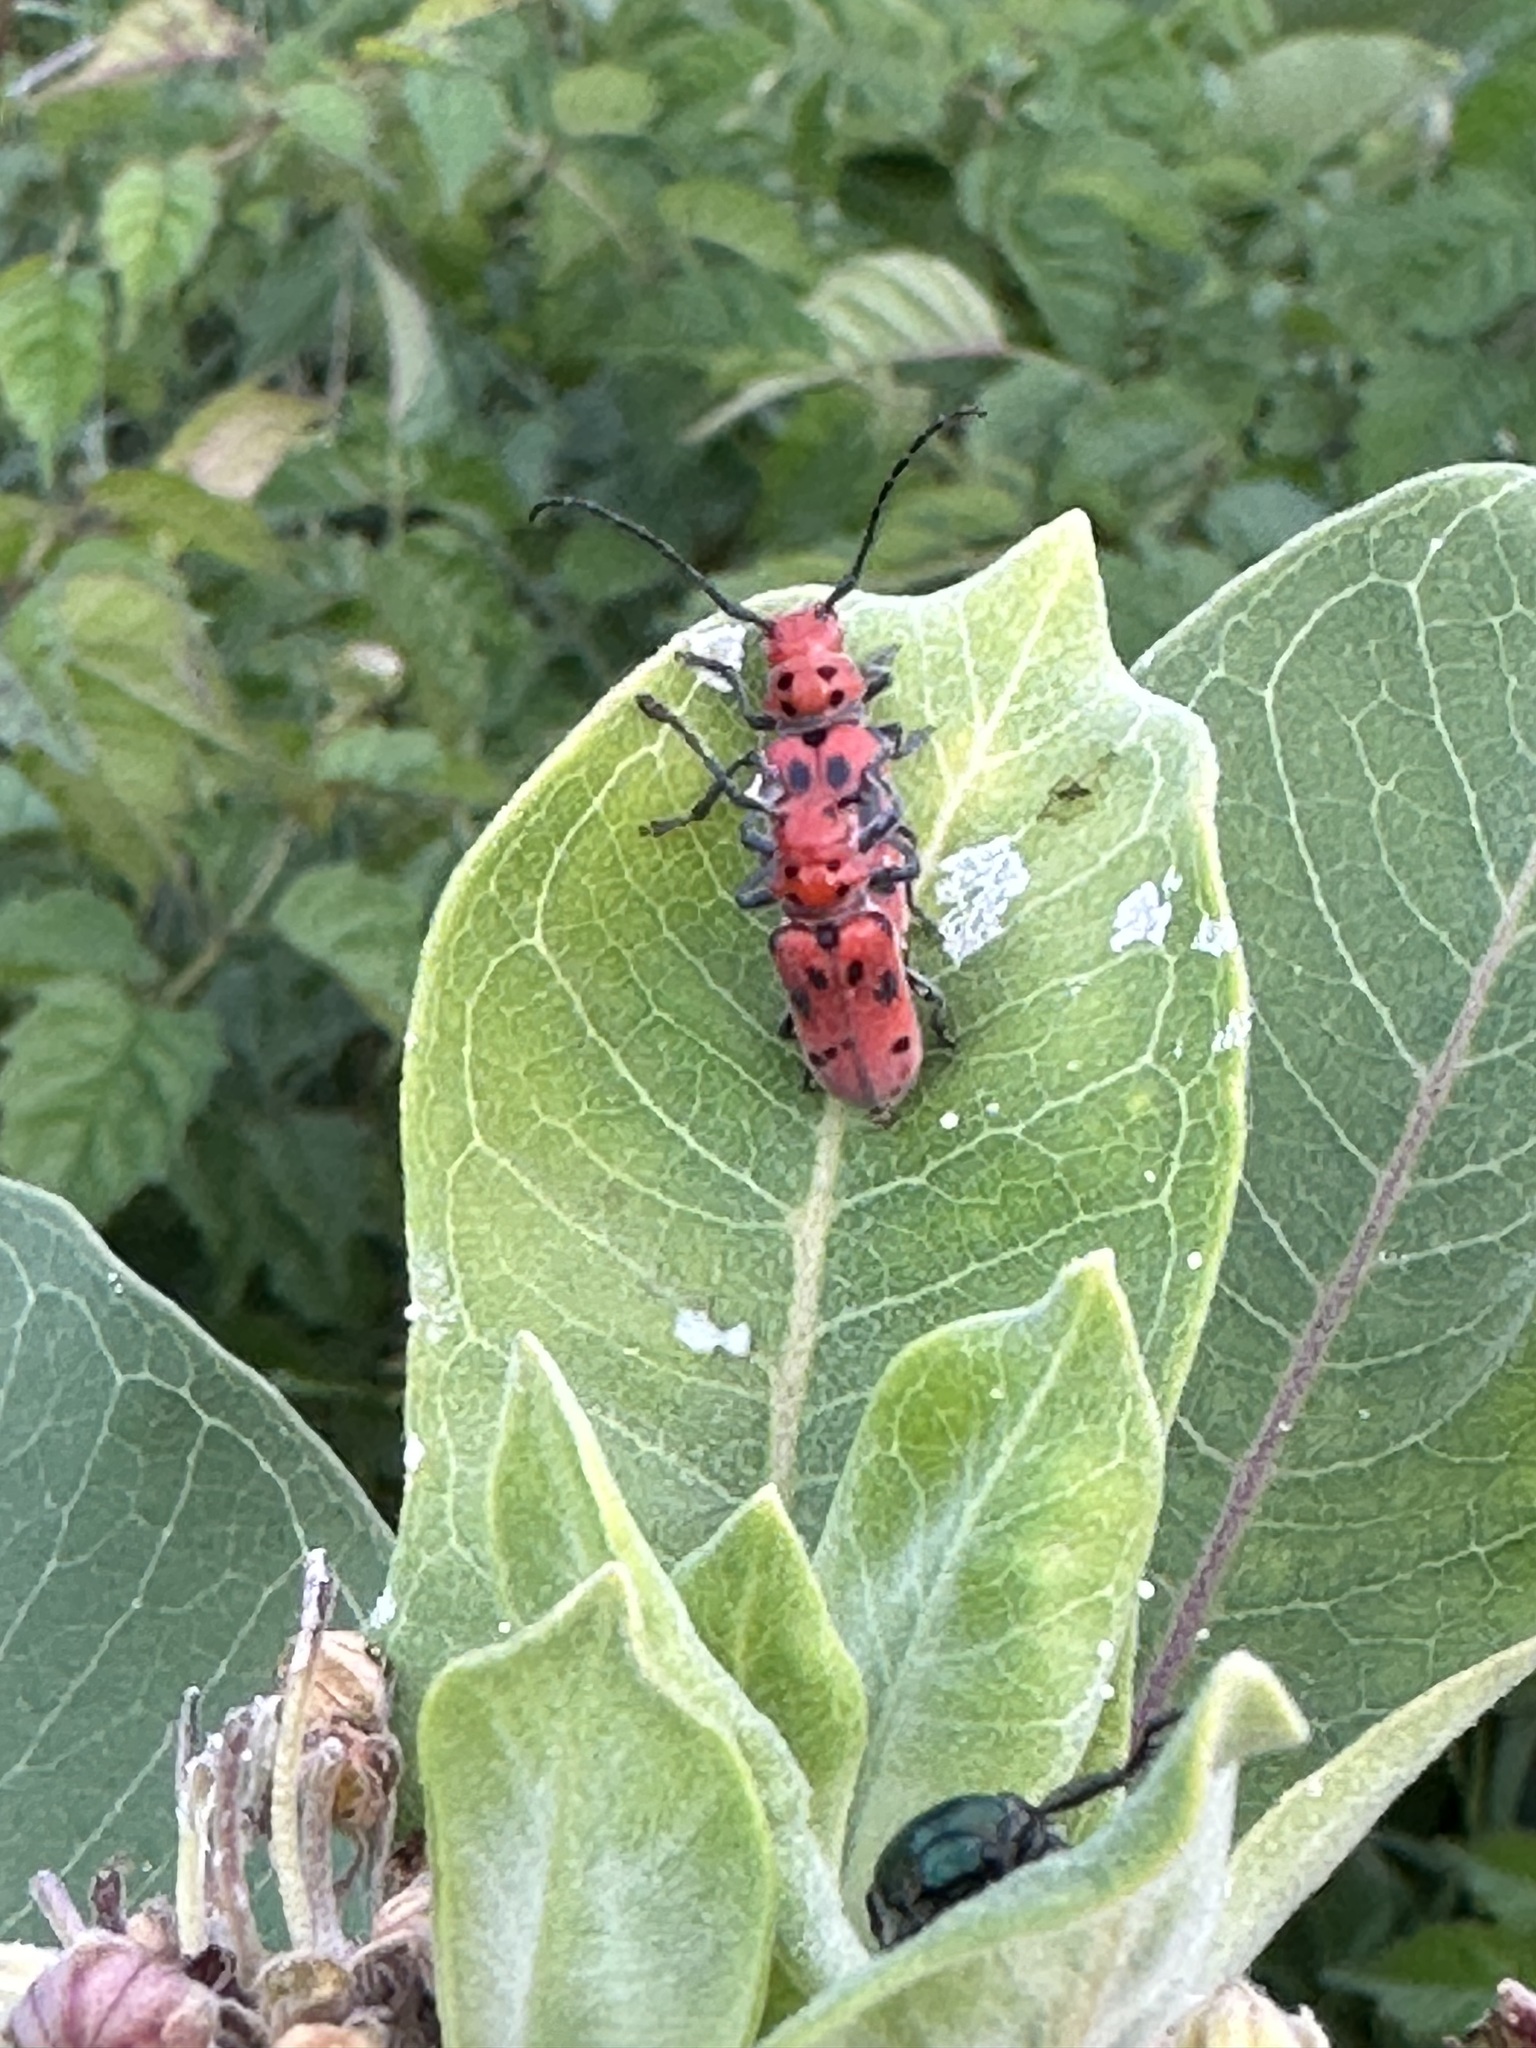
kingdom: Animalia
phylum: Arthropoda
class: Insecta
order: Coleoptera
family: Cerambycidae
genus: Tetraopes
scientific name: Tetraopes tetrophthalmus
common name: Red milkweed beetle
